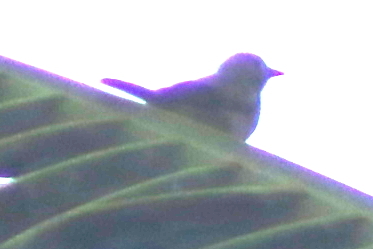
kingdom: Animalia
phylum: Chordata
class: Aves
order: Passeriformes
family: Thraupidae
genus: Thraupis
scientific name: Thraupis palmarum
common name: Palm tanager
